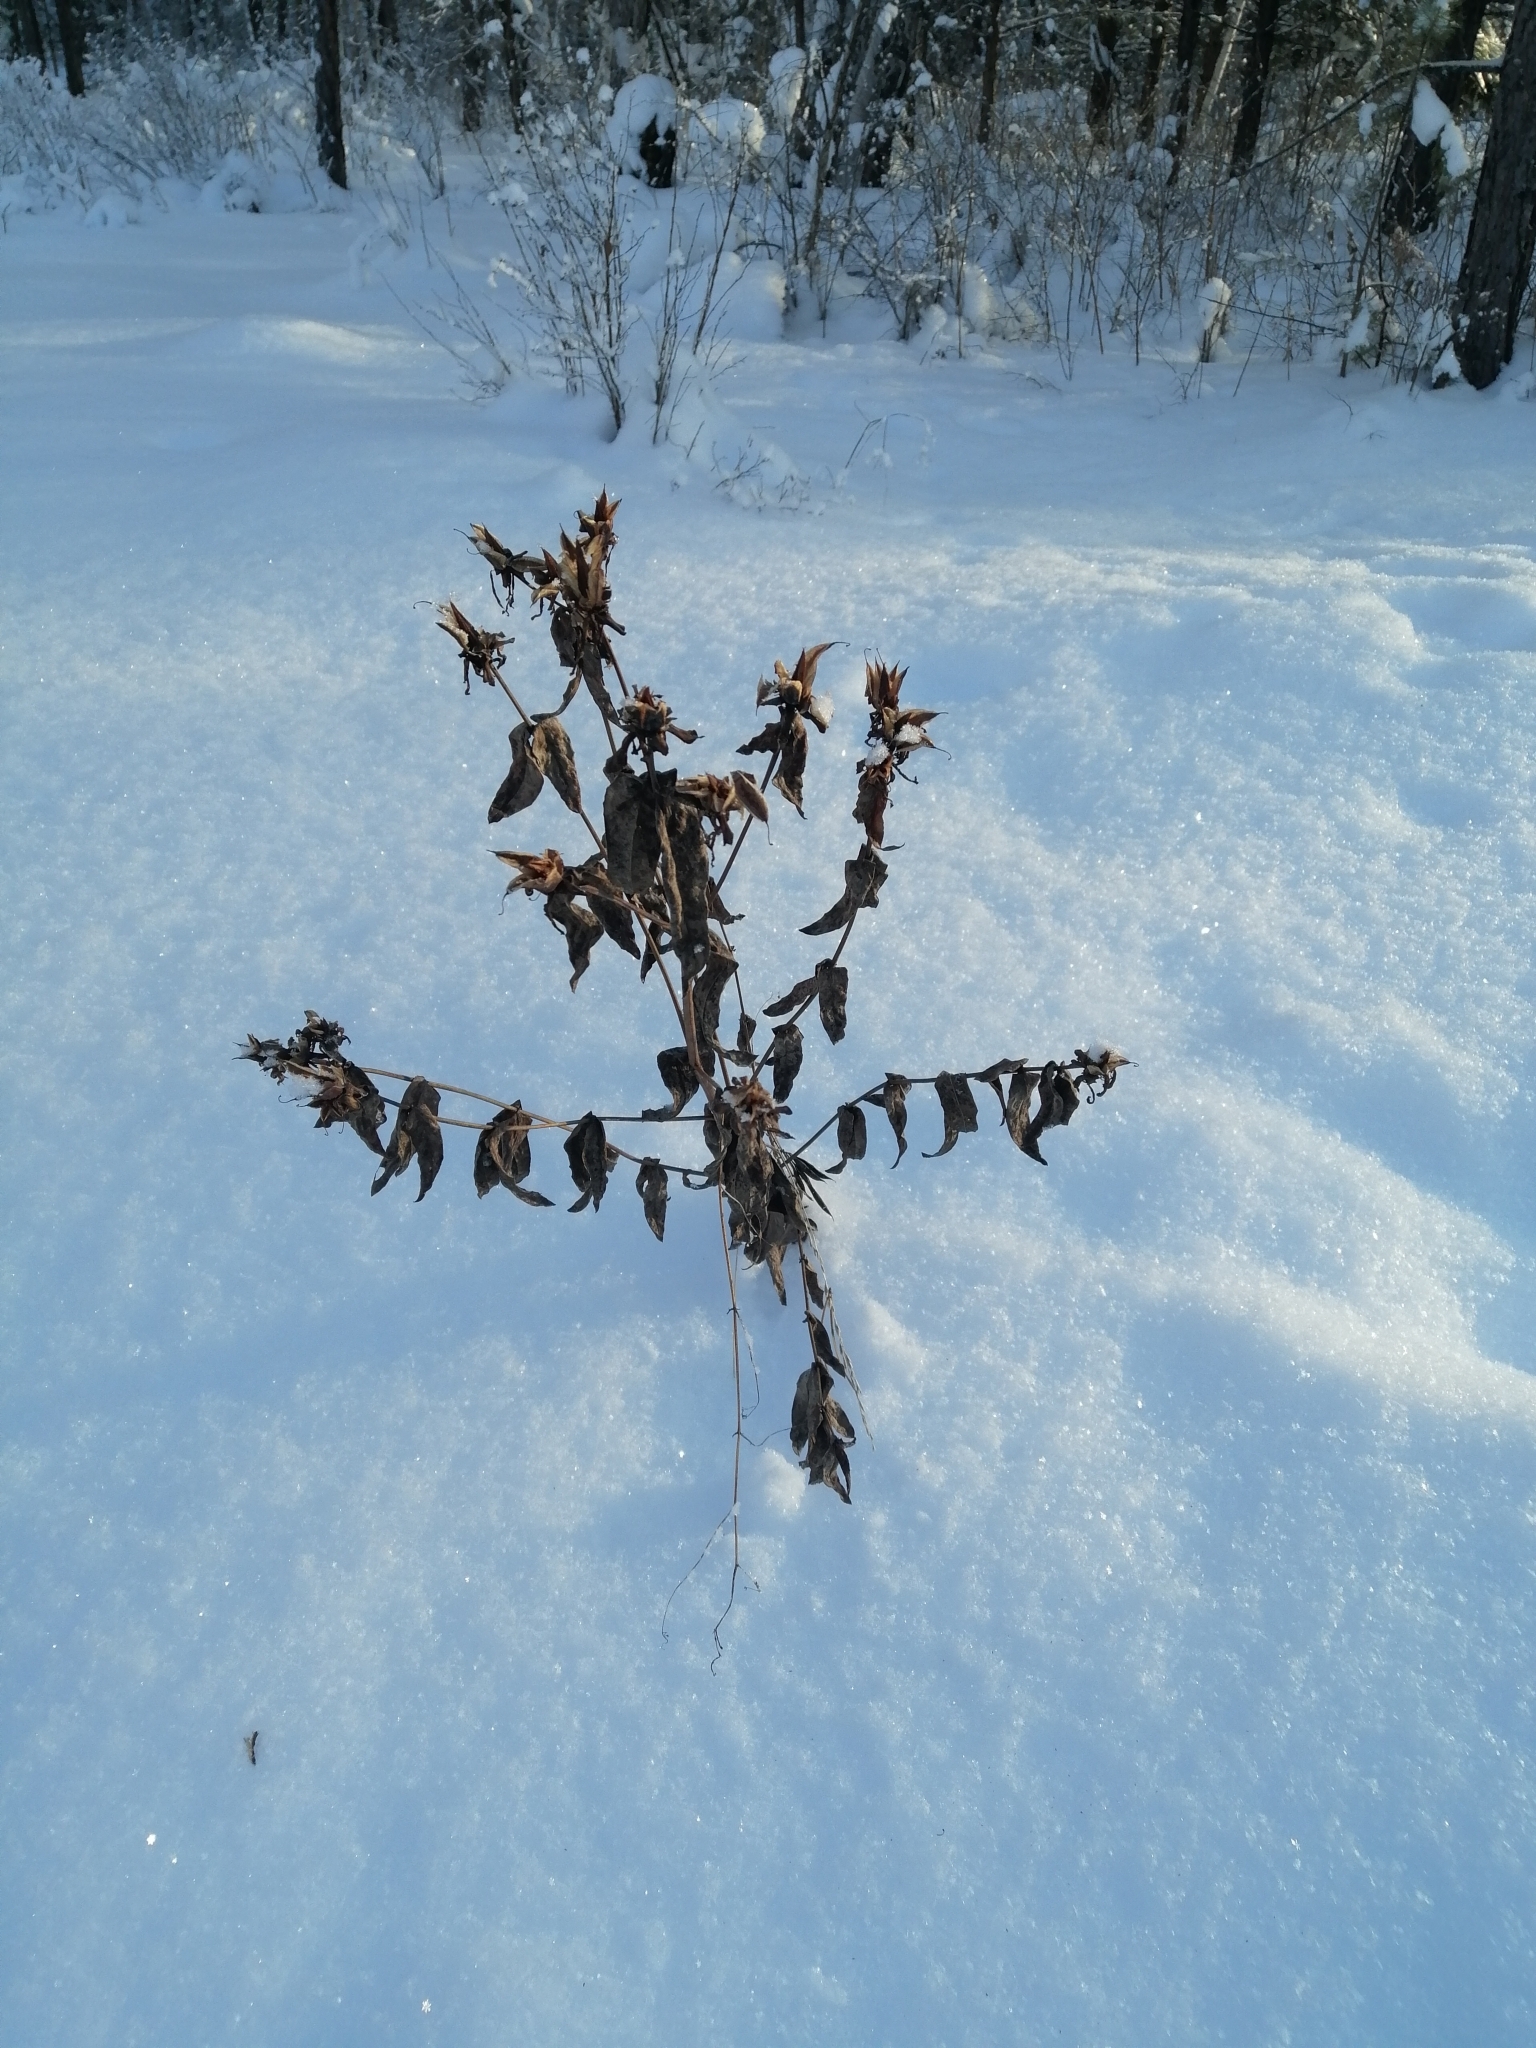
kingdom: Plantae
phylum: Tracheophyta
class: Magnoliopsida
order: Malpighiales
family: Hypericaceae
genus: Hypericum
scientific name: Hypericum ascyron
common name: Giant st. john's-wort
